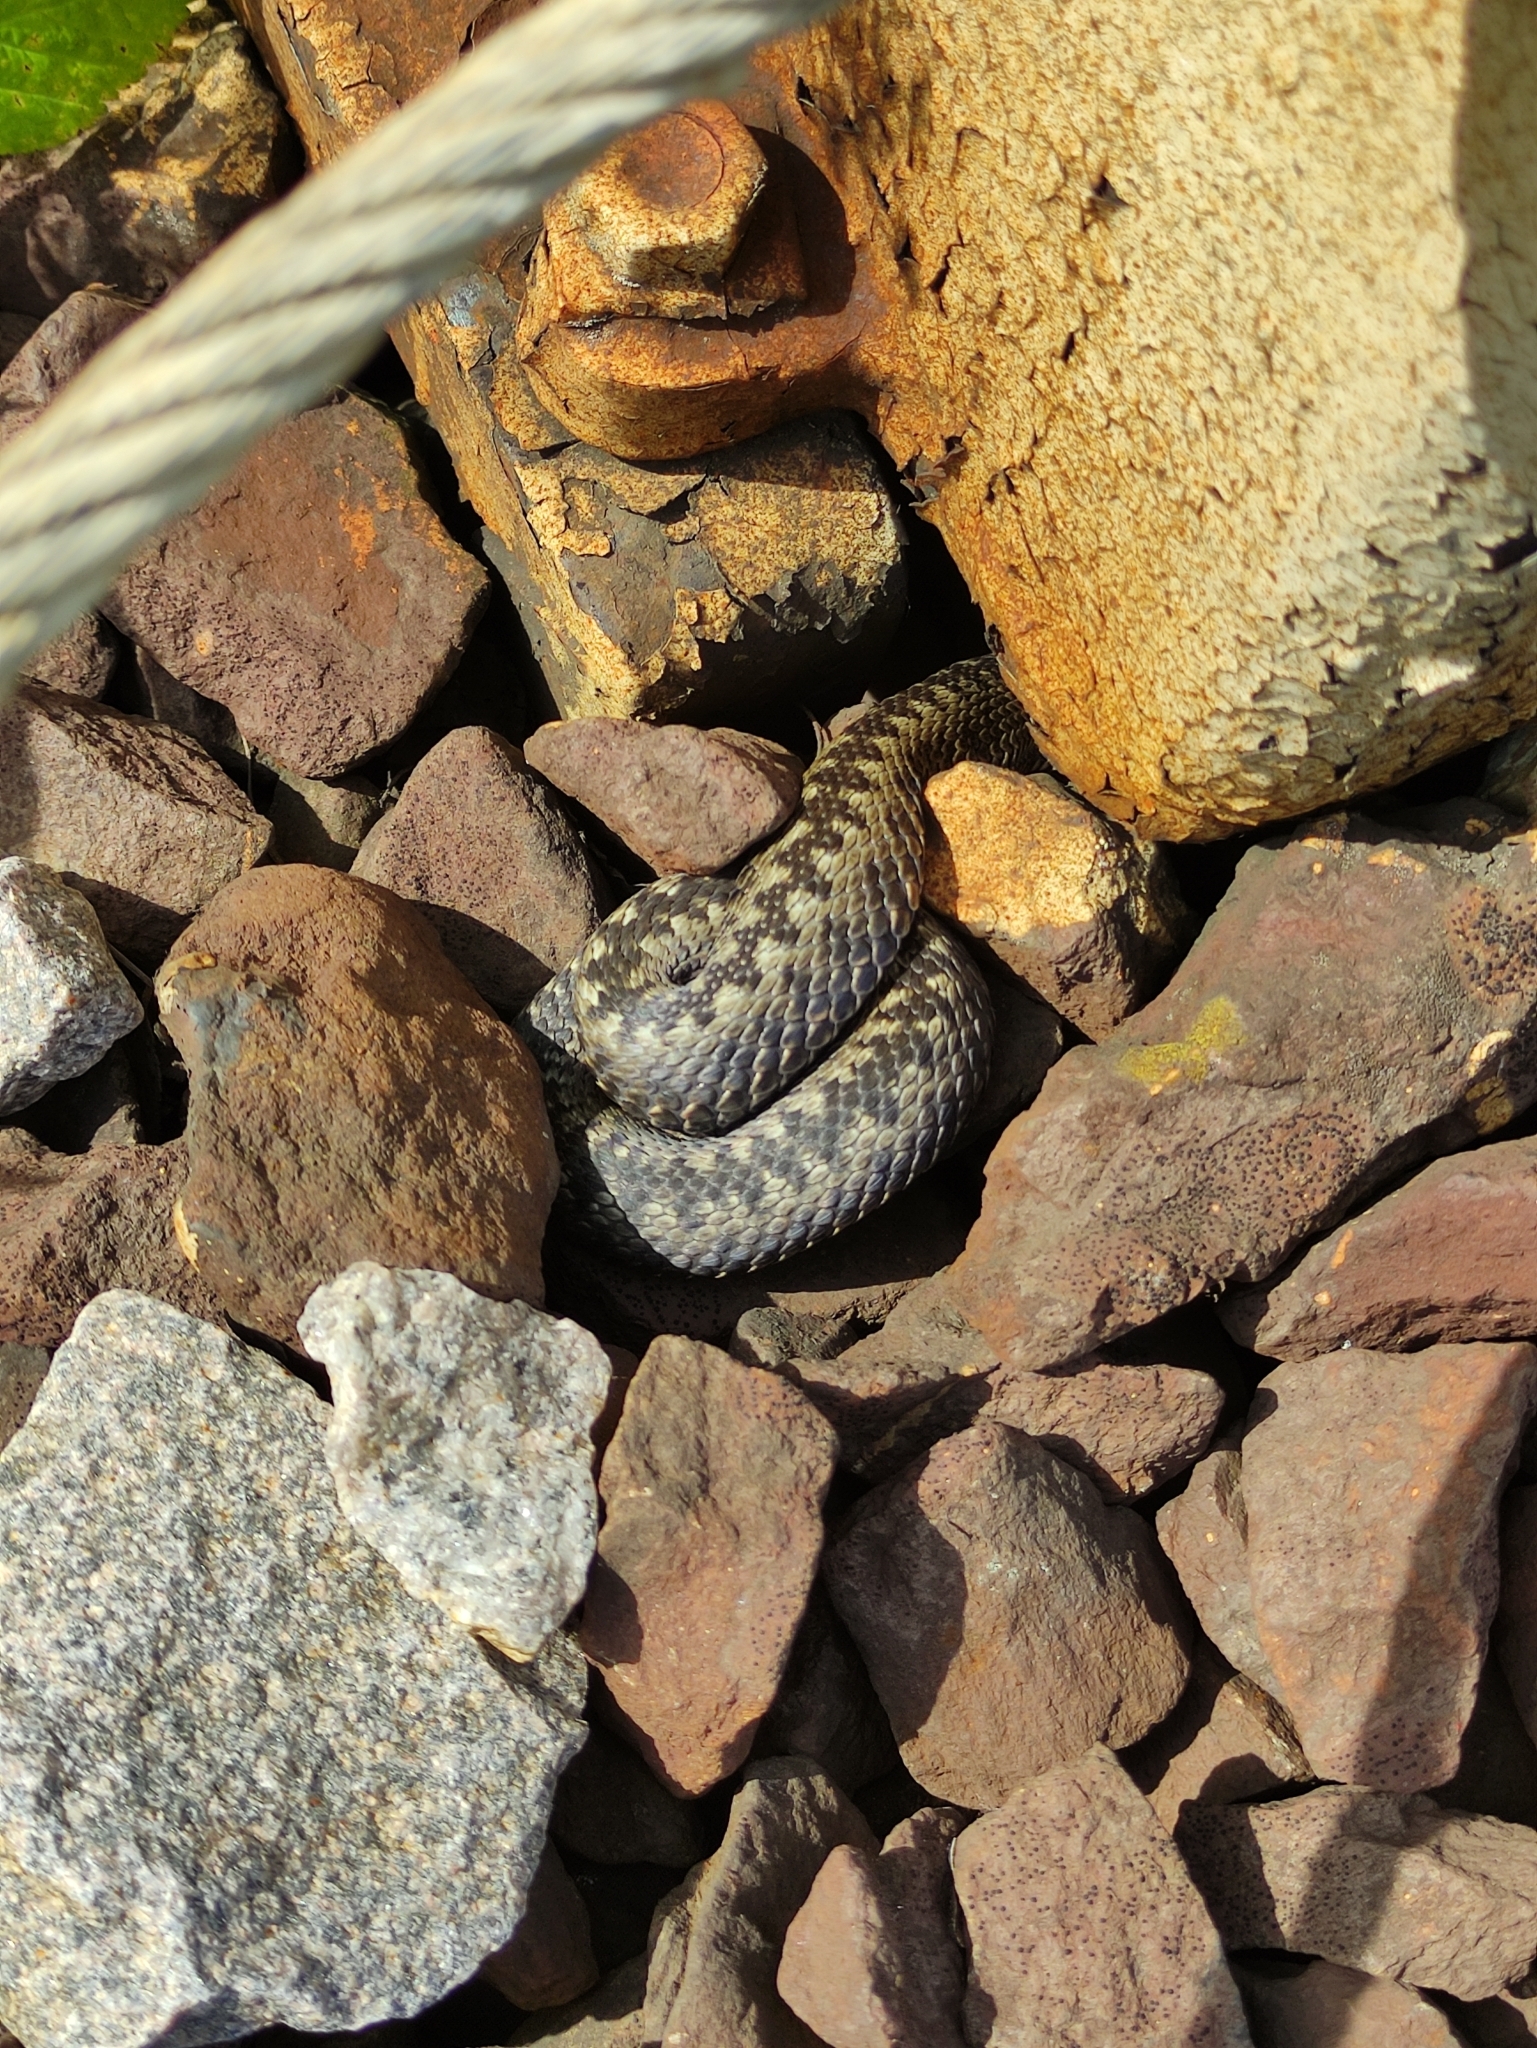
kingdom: Animalia
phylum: Chordata
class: Squamata
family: Viperidae
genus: Vipera
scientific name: Vipera berus
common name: Adder
